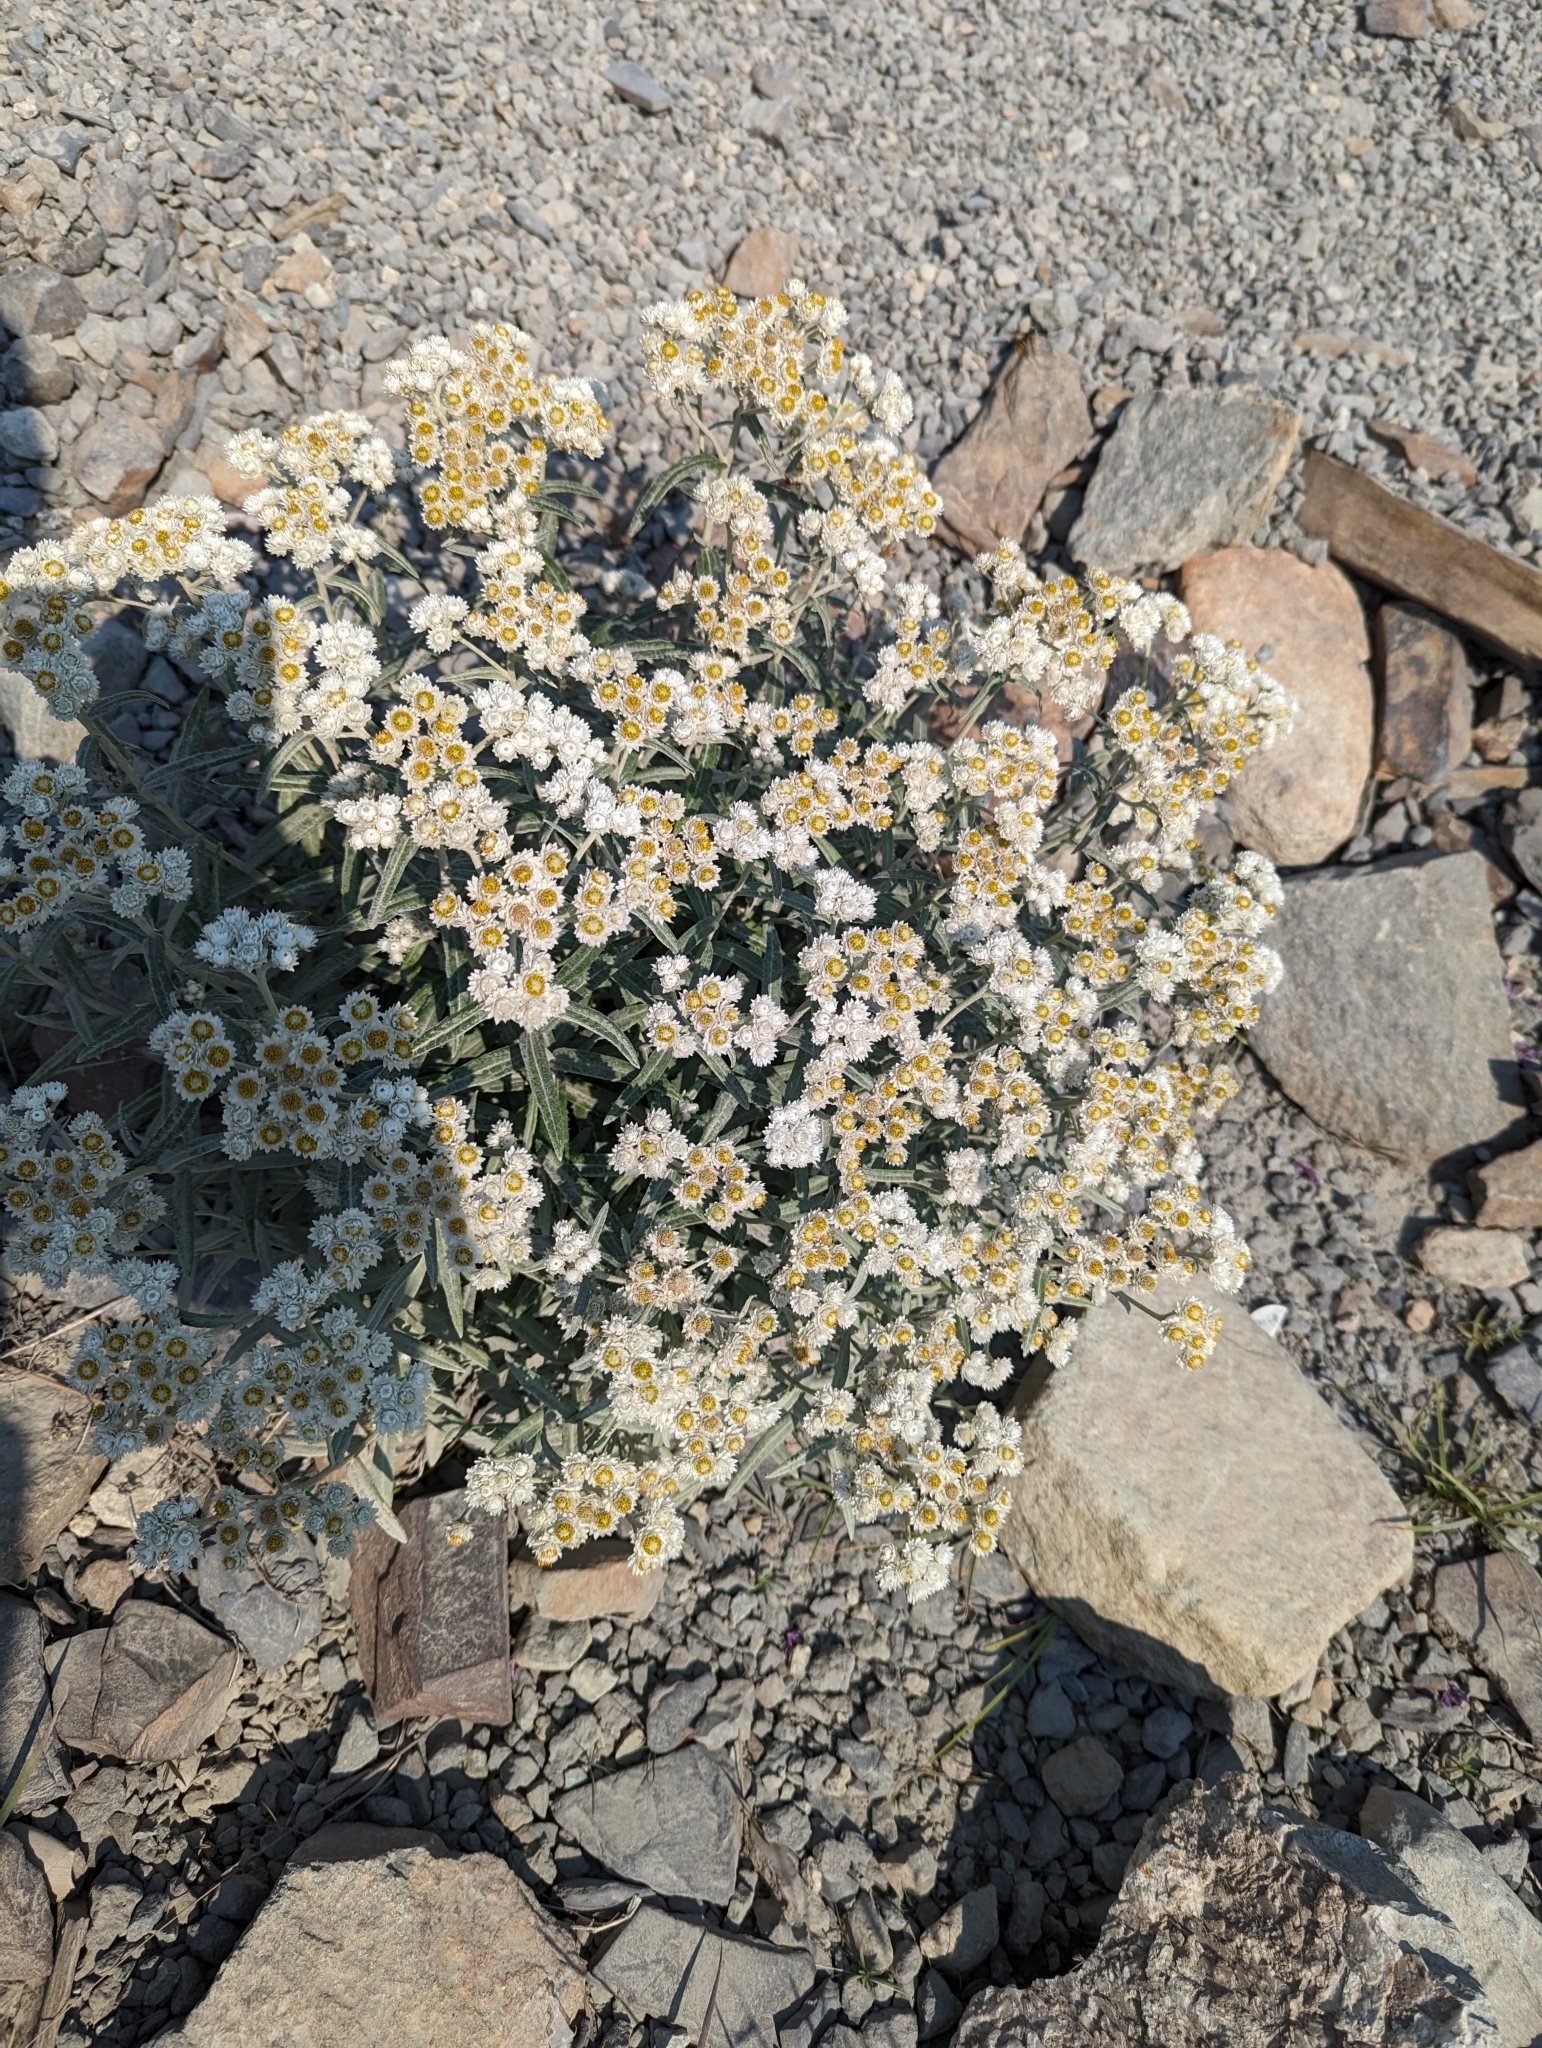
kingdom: Plantae
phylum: Tracheophyta
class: Magnoliopsida
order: Asterales
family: Asteraceae
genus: Anaphalis
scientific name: Anaphalis margaritacea
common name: Pearly everlasting
